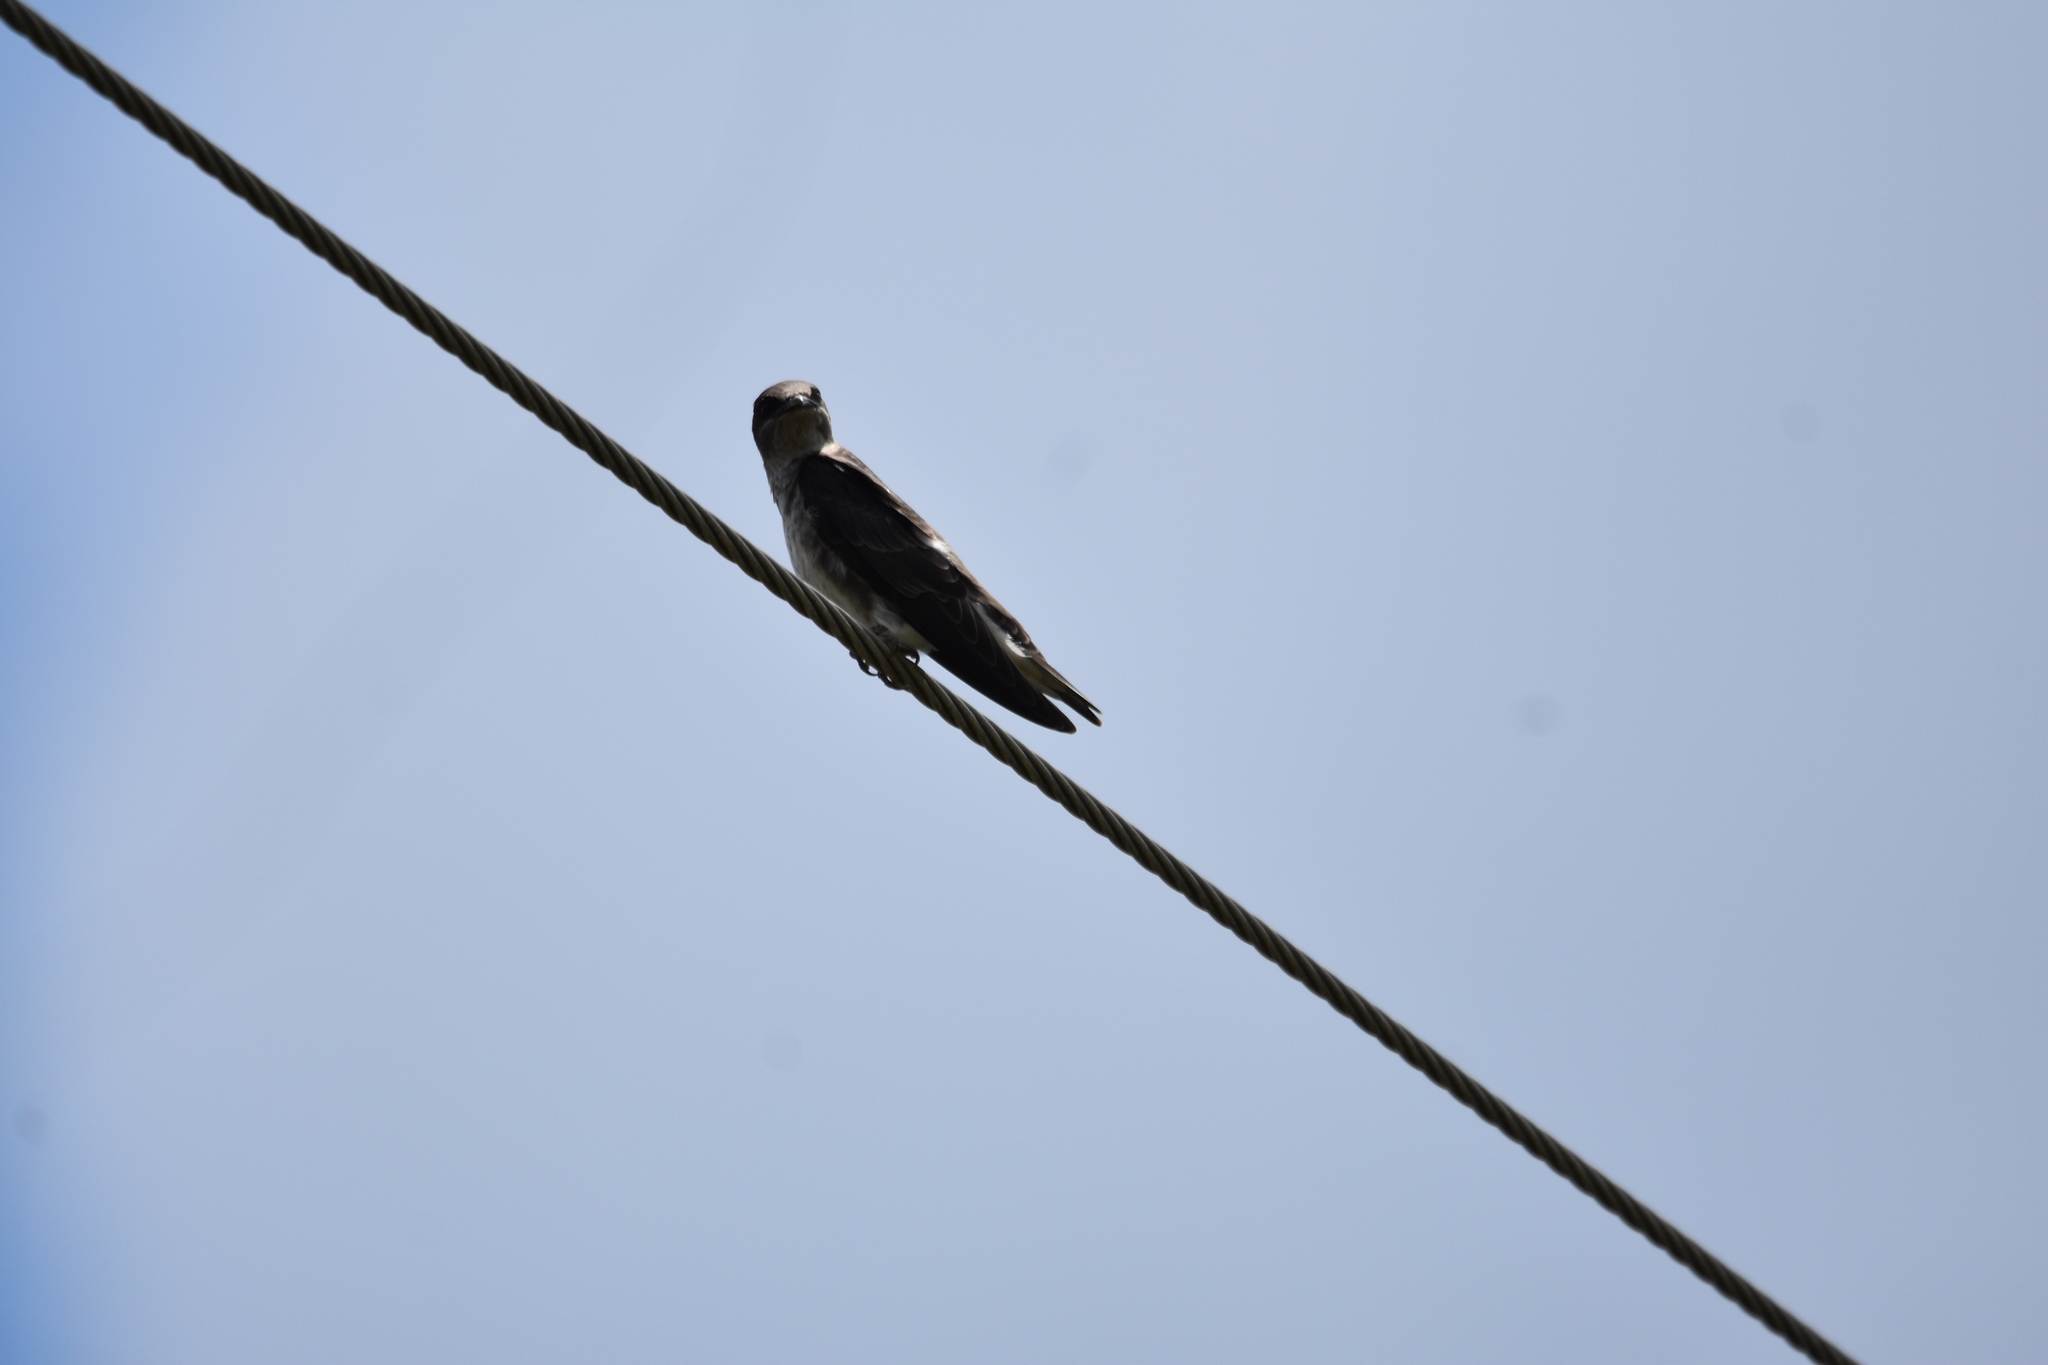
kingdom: Animalia
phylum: Chordata
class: Aves
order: Passeriformes
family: Hirundinidae
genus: Progne
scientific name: Progne subis
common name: Purple martin
